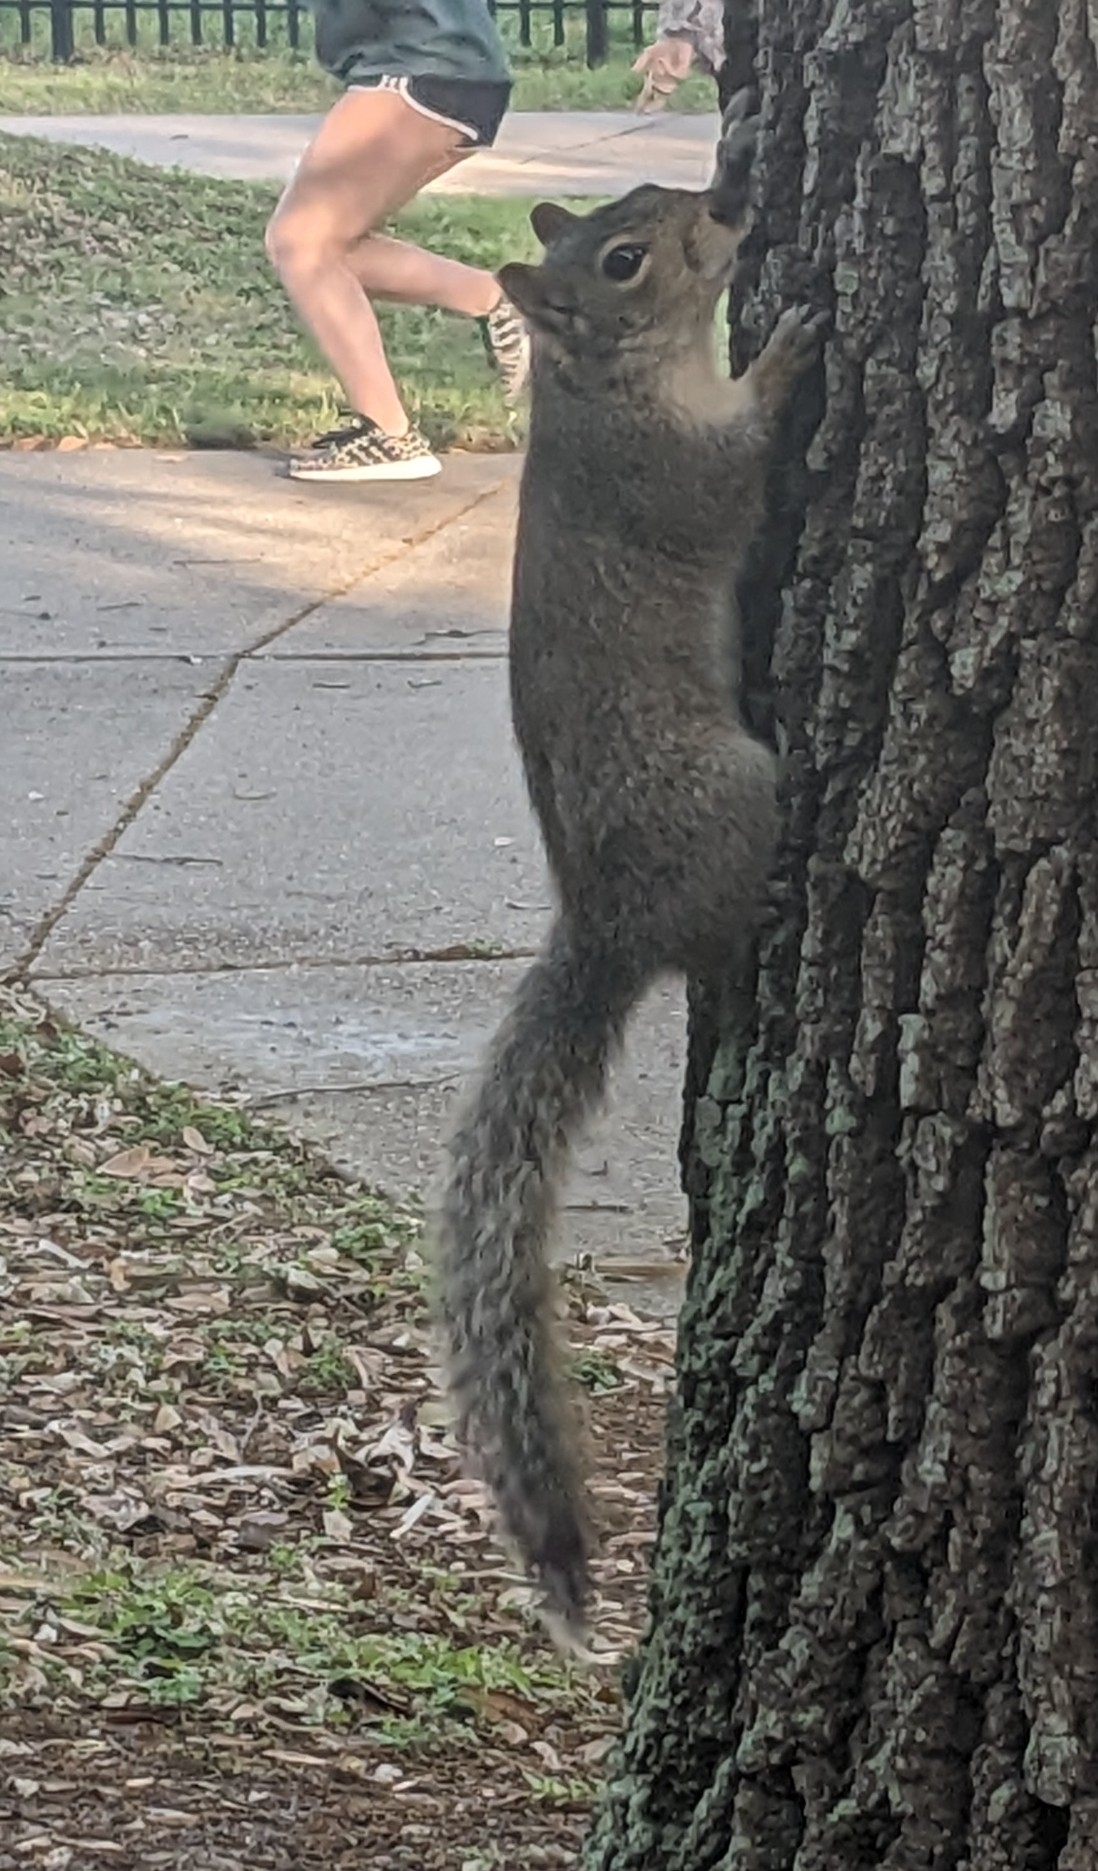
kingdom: Animalia
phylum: Chordata
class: Mammalia
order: Rodentia
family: Sciuridae
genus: Sciurus
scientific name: Sciurus carolinensis
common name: Eastern gray squirrel
